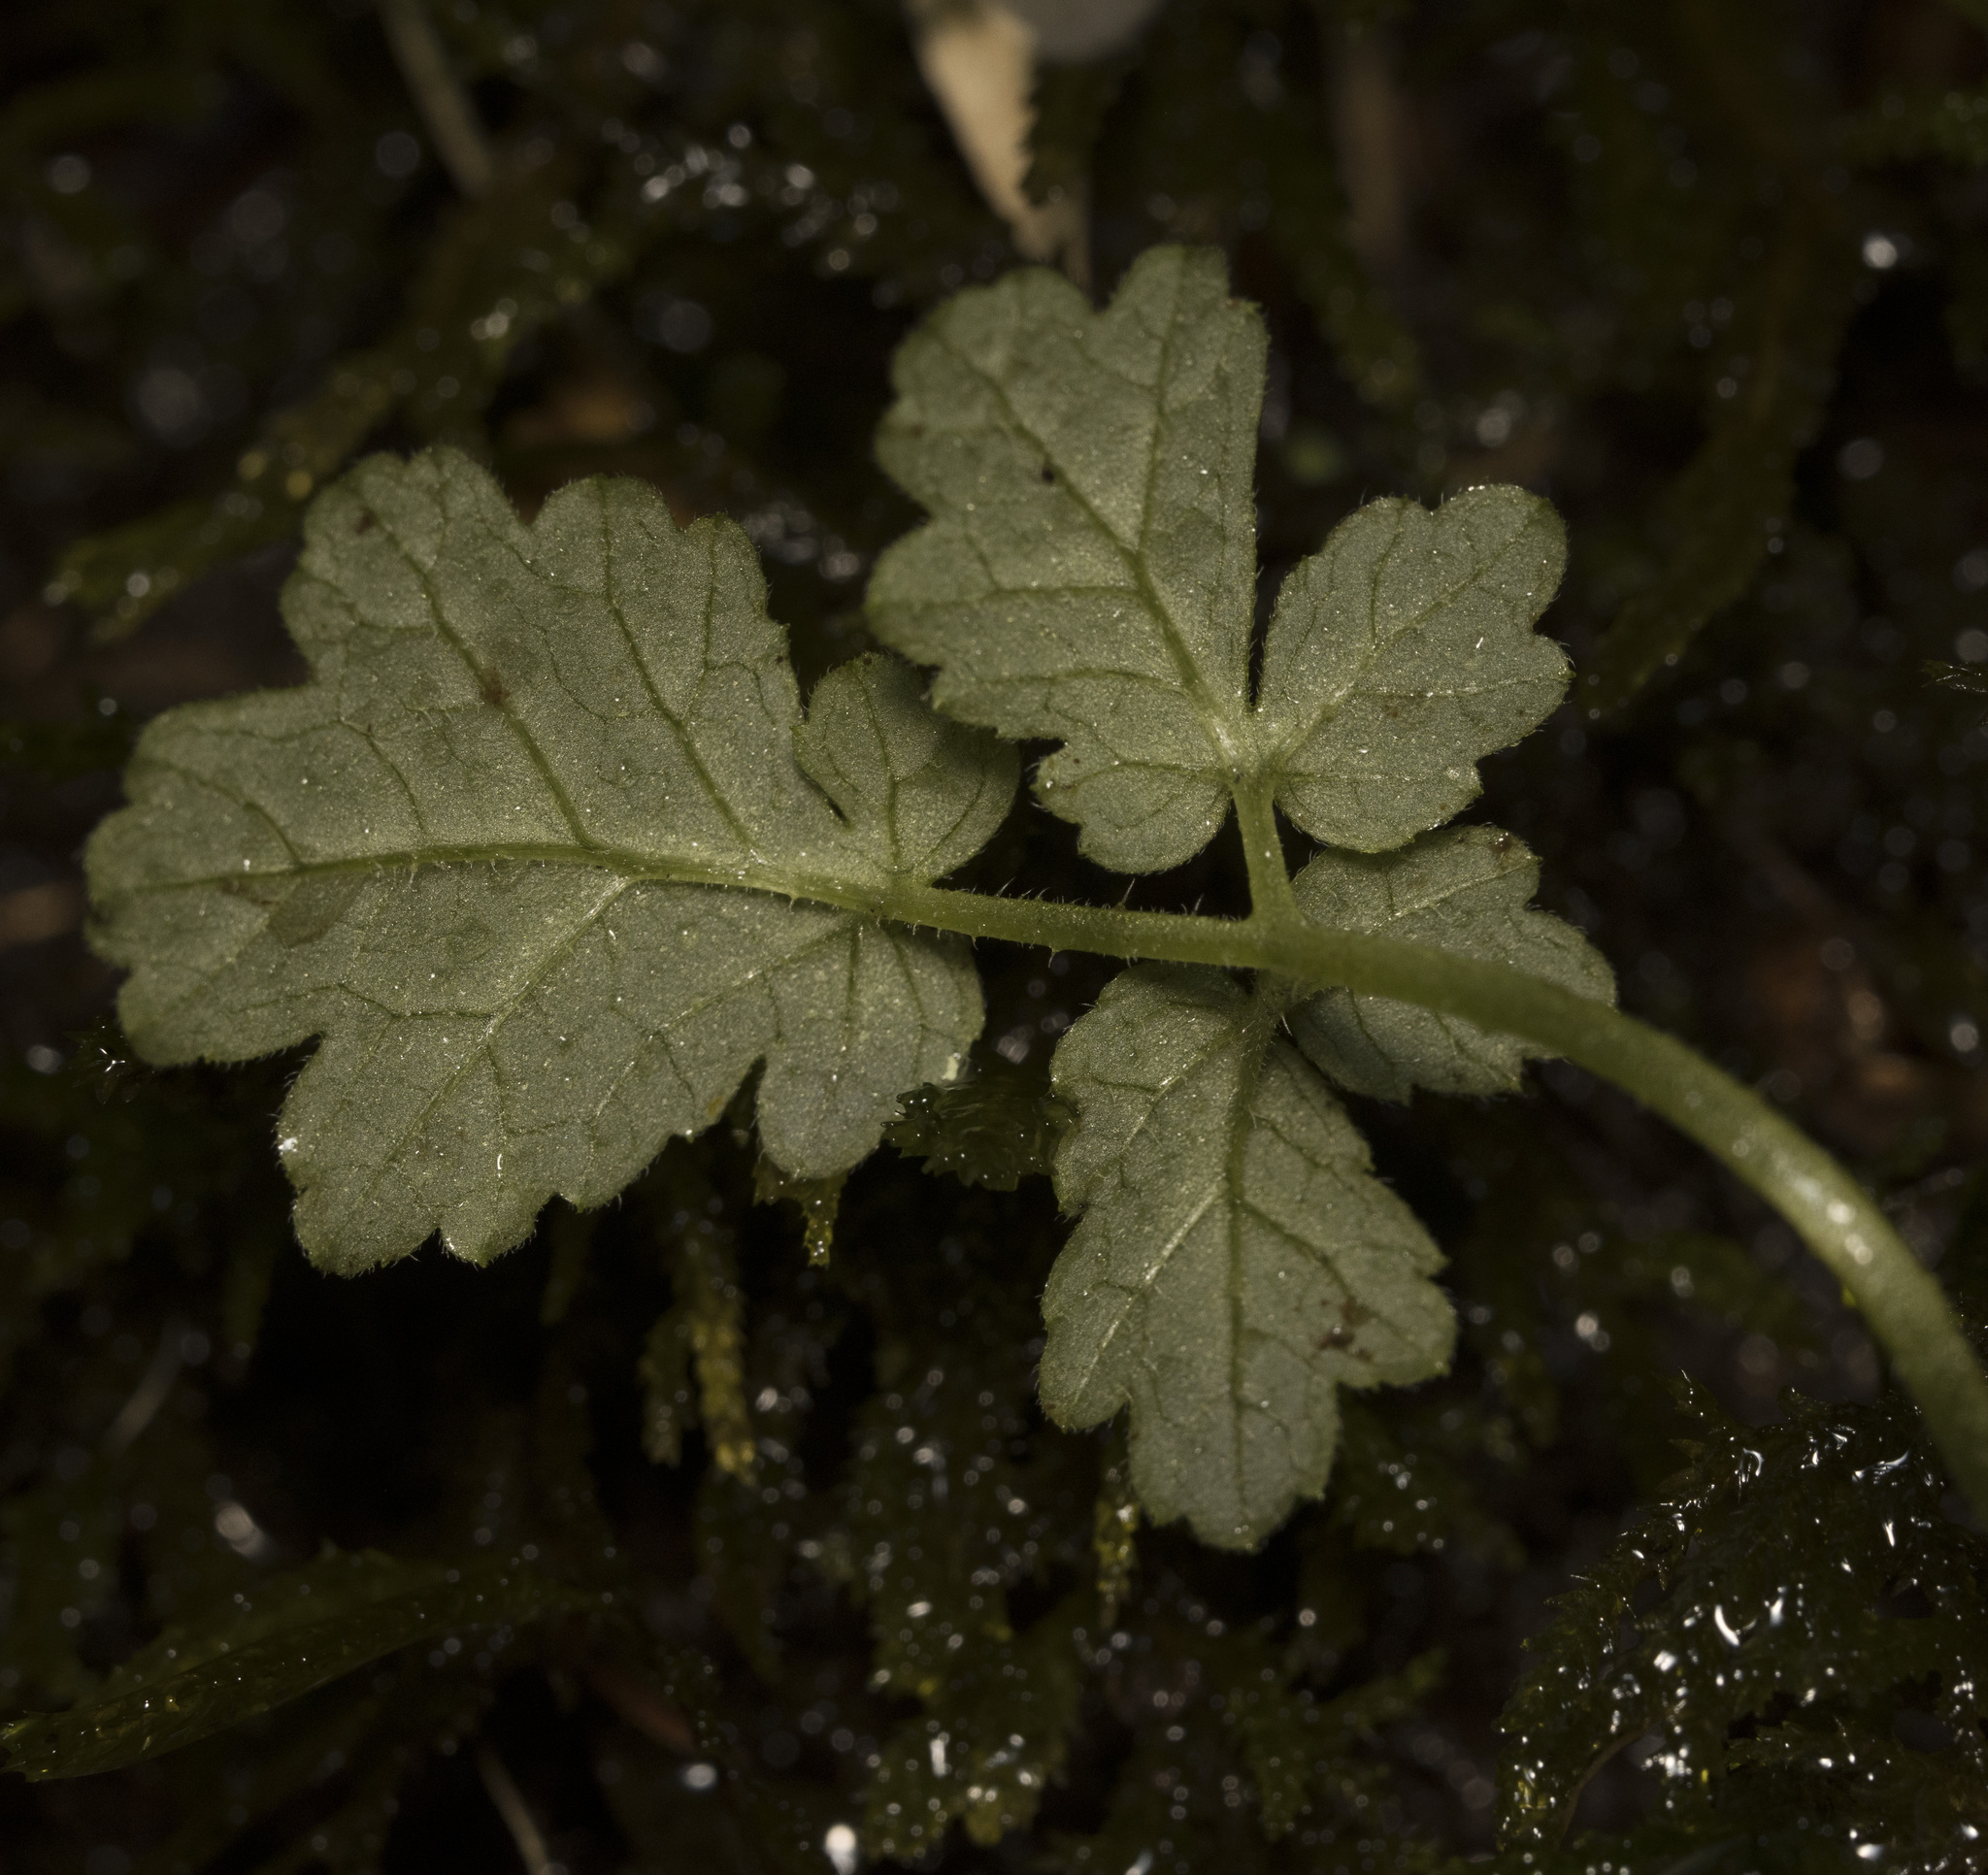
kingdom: Plantae
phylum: Tracheophyta
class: Magnoliopsida
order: Cornales
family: Loasaceae
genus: Grausa
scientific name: Grausa martini
